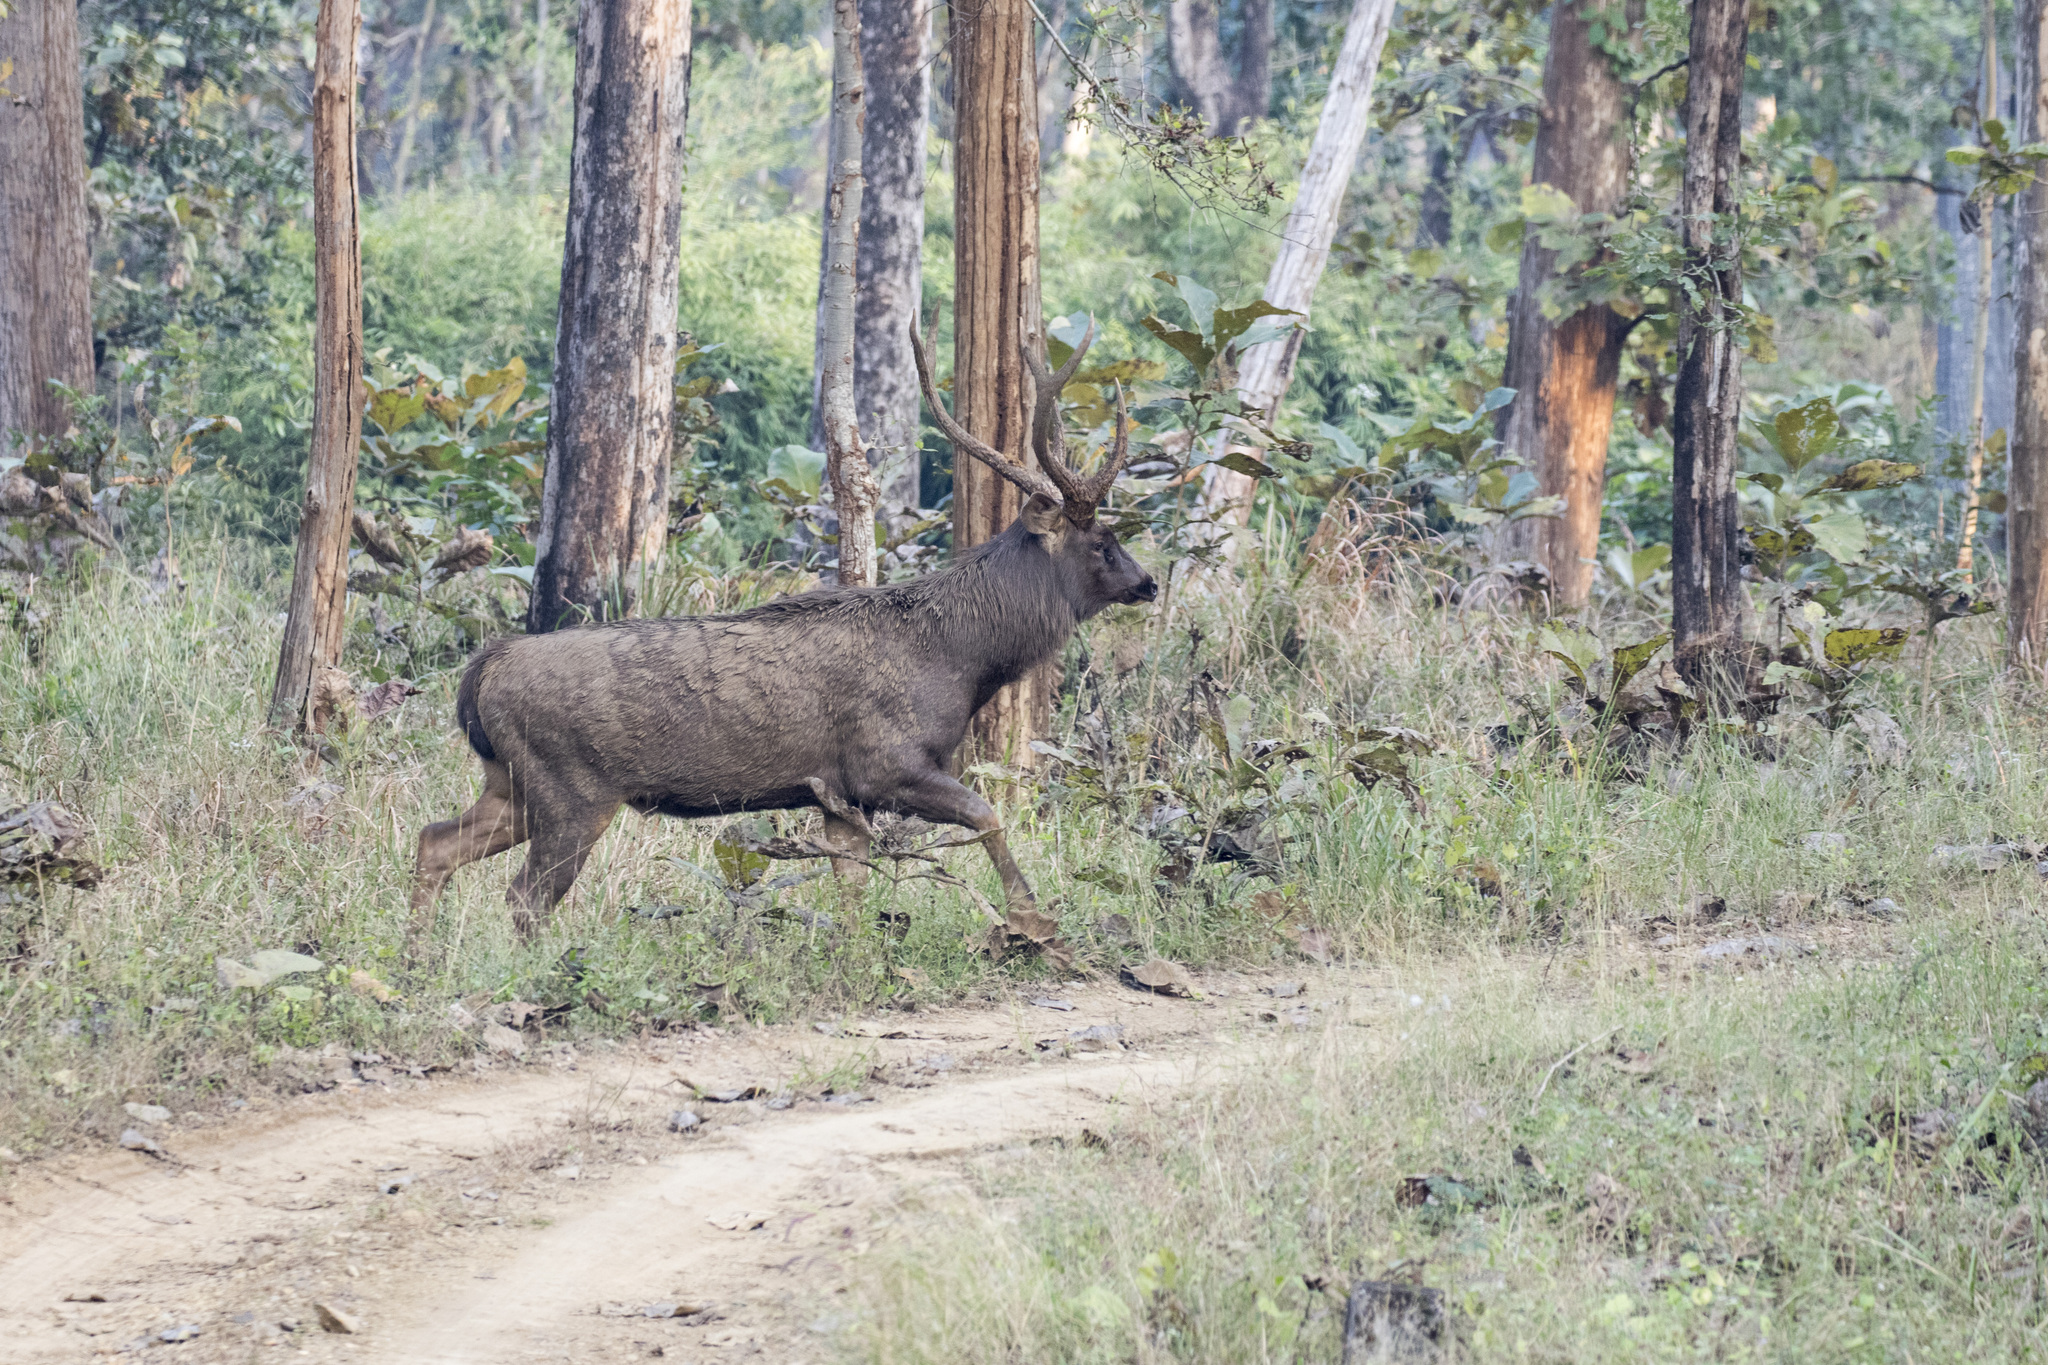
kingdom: Animalia
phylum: Chordata
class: Mammalia
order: Artiodactyla
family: Cervidae
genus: Rusa
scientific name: Rusa unicolor
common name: Sambar
